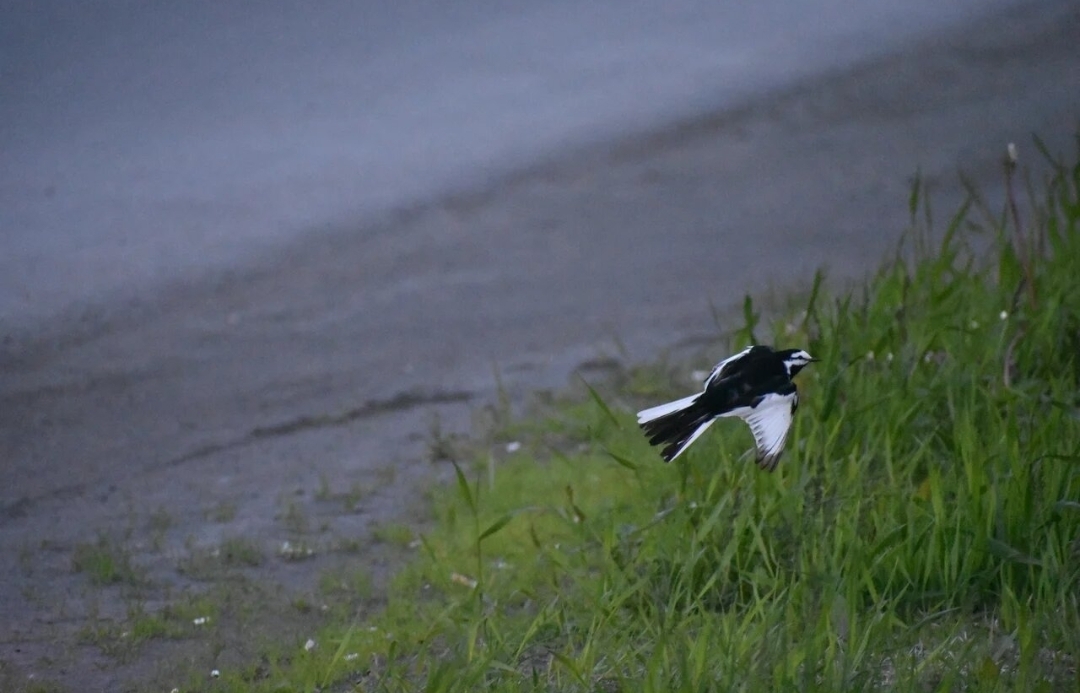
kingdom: Animalia
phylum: Chordata
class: Aves
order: Passeriformes
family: Motacillidae
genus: Motacilla
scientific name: Motacilla alba
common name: White wagtail
